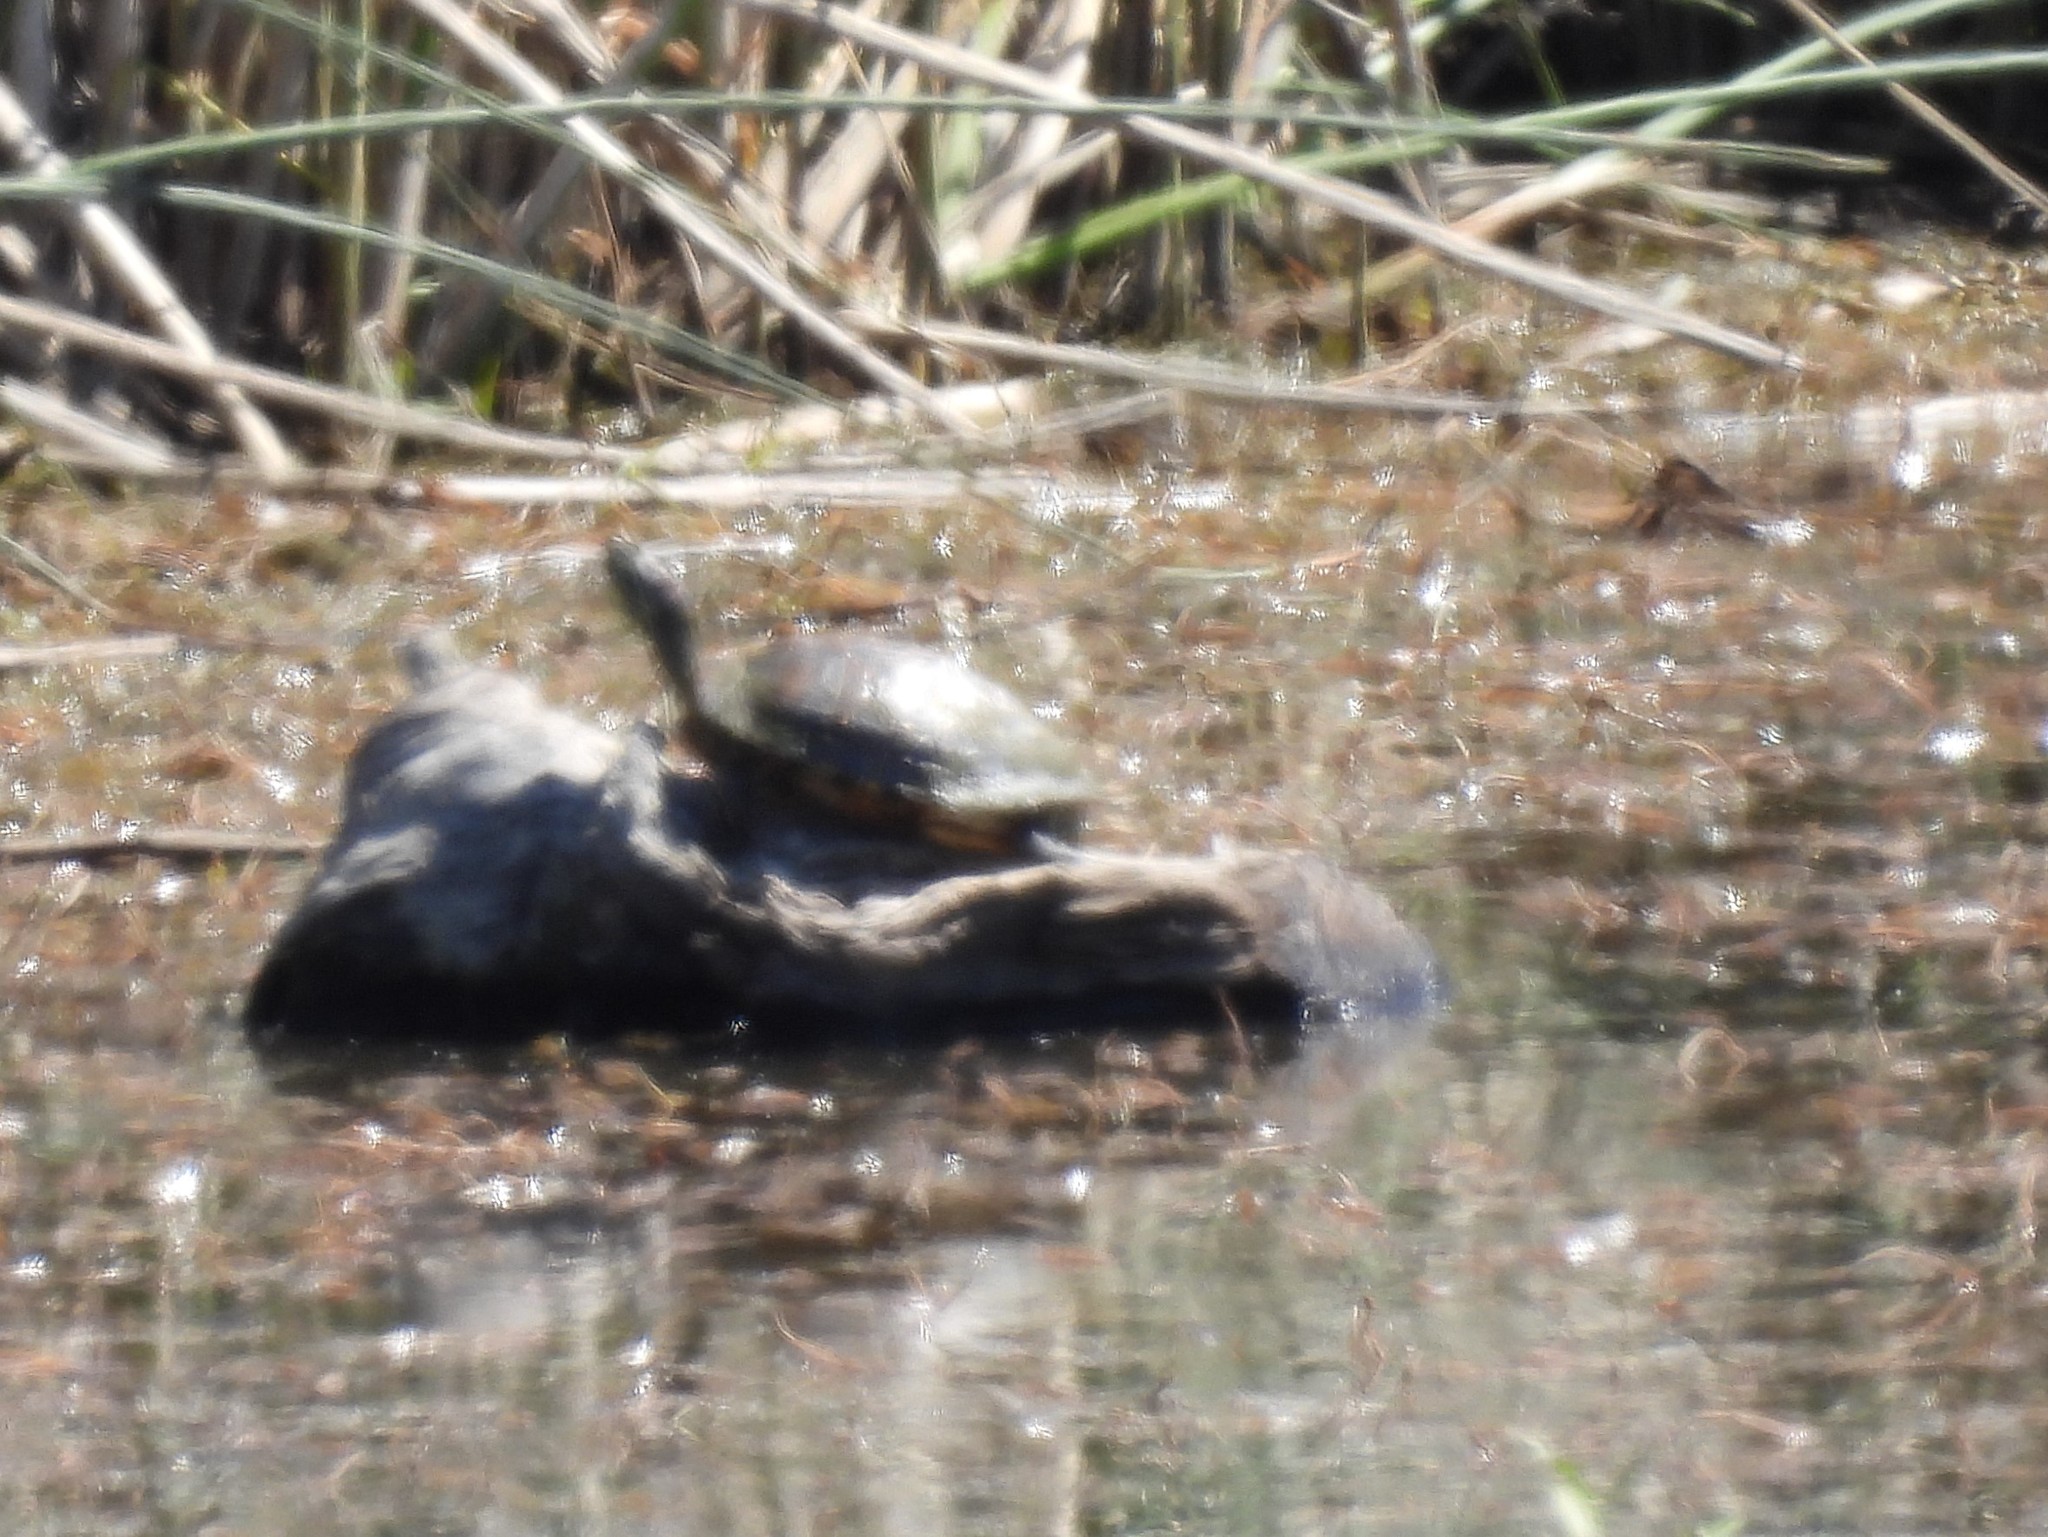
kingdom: Animalia
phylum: Chordata
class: Testudines
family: Emydidae
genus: Trachemys
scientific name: Trachemys scripta
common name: Slider
